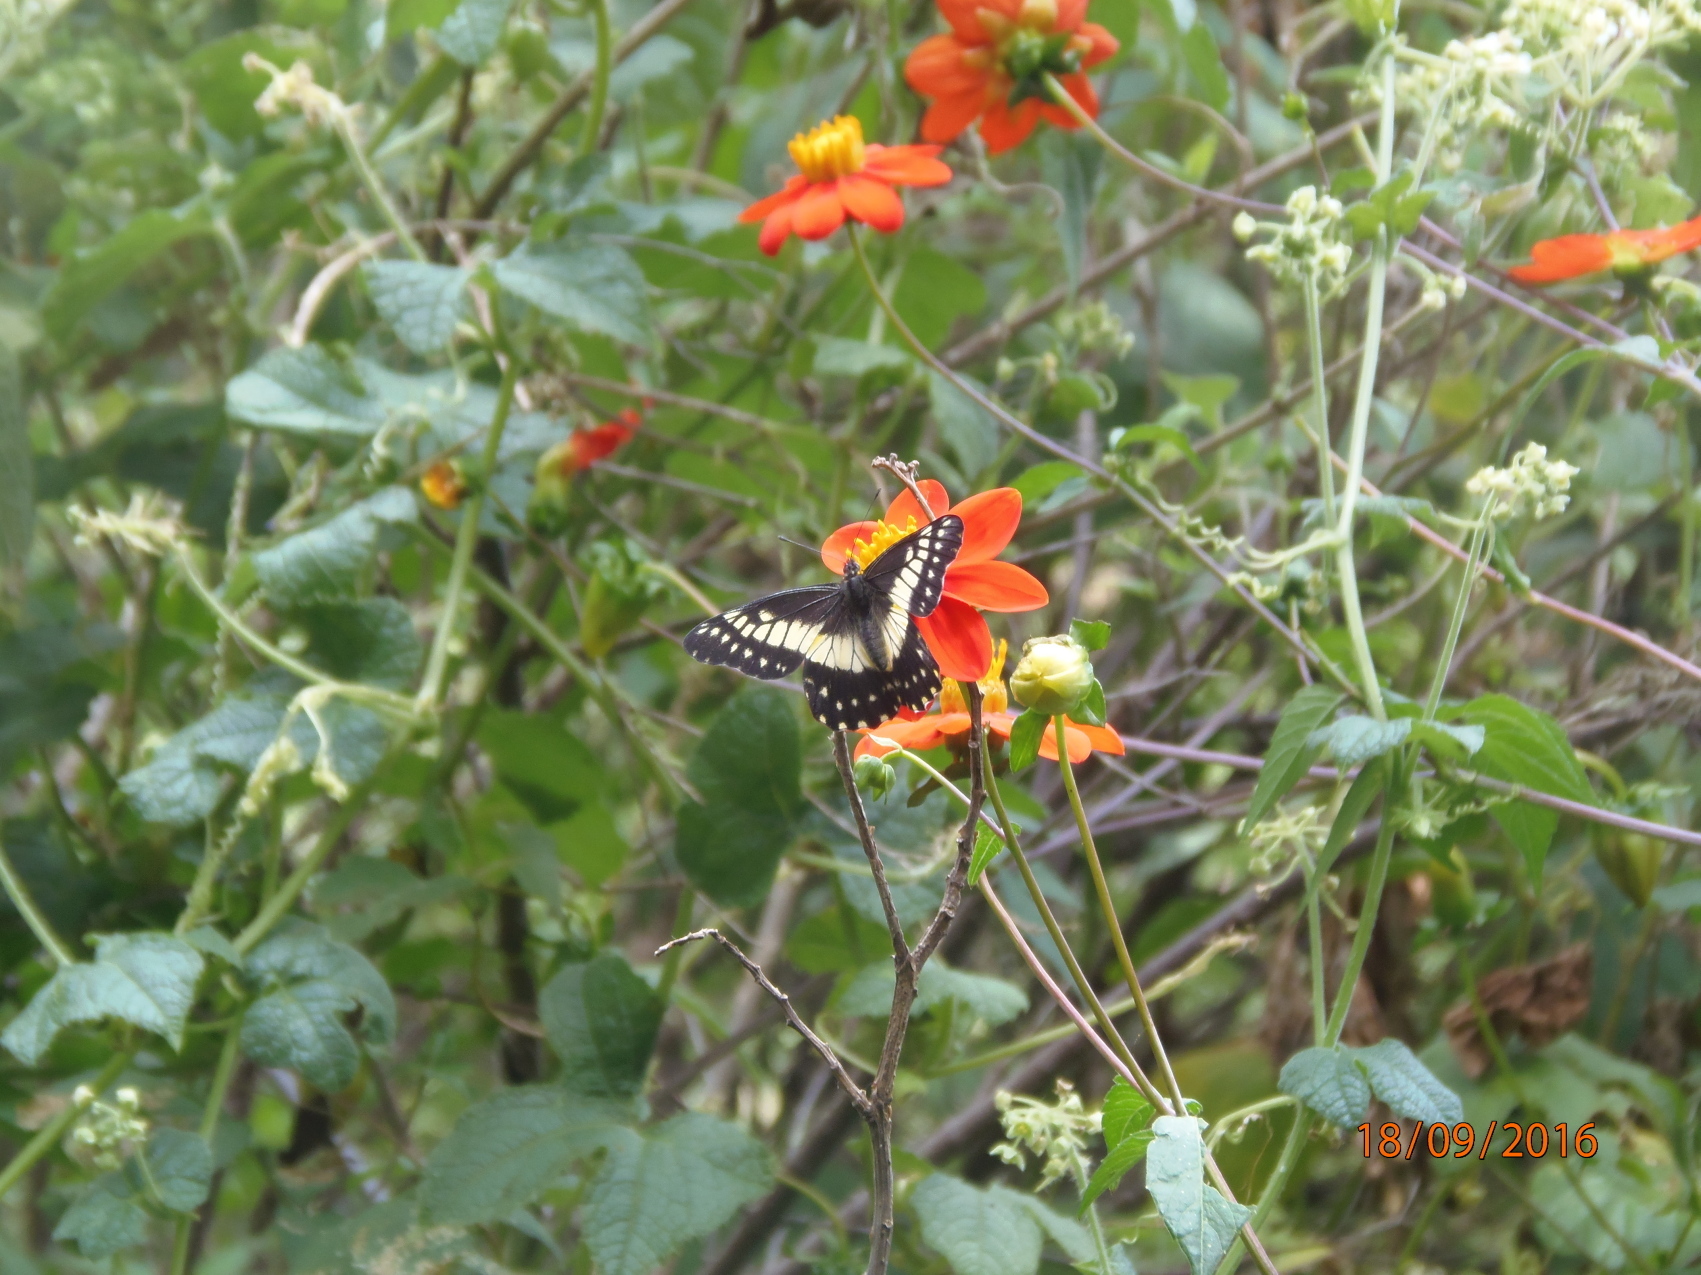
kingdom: Animalia
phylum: Arthropoda
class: Insecta
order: Lepidoptera
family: Pieridae
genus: Archonias
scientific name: Archonias nimbice
